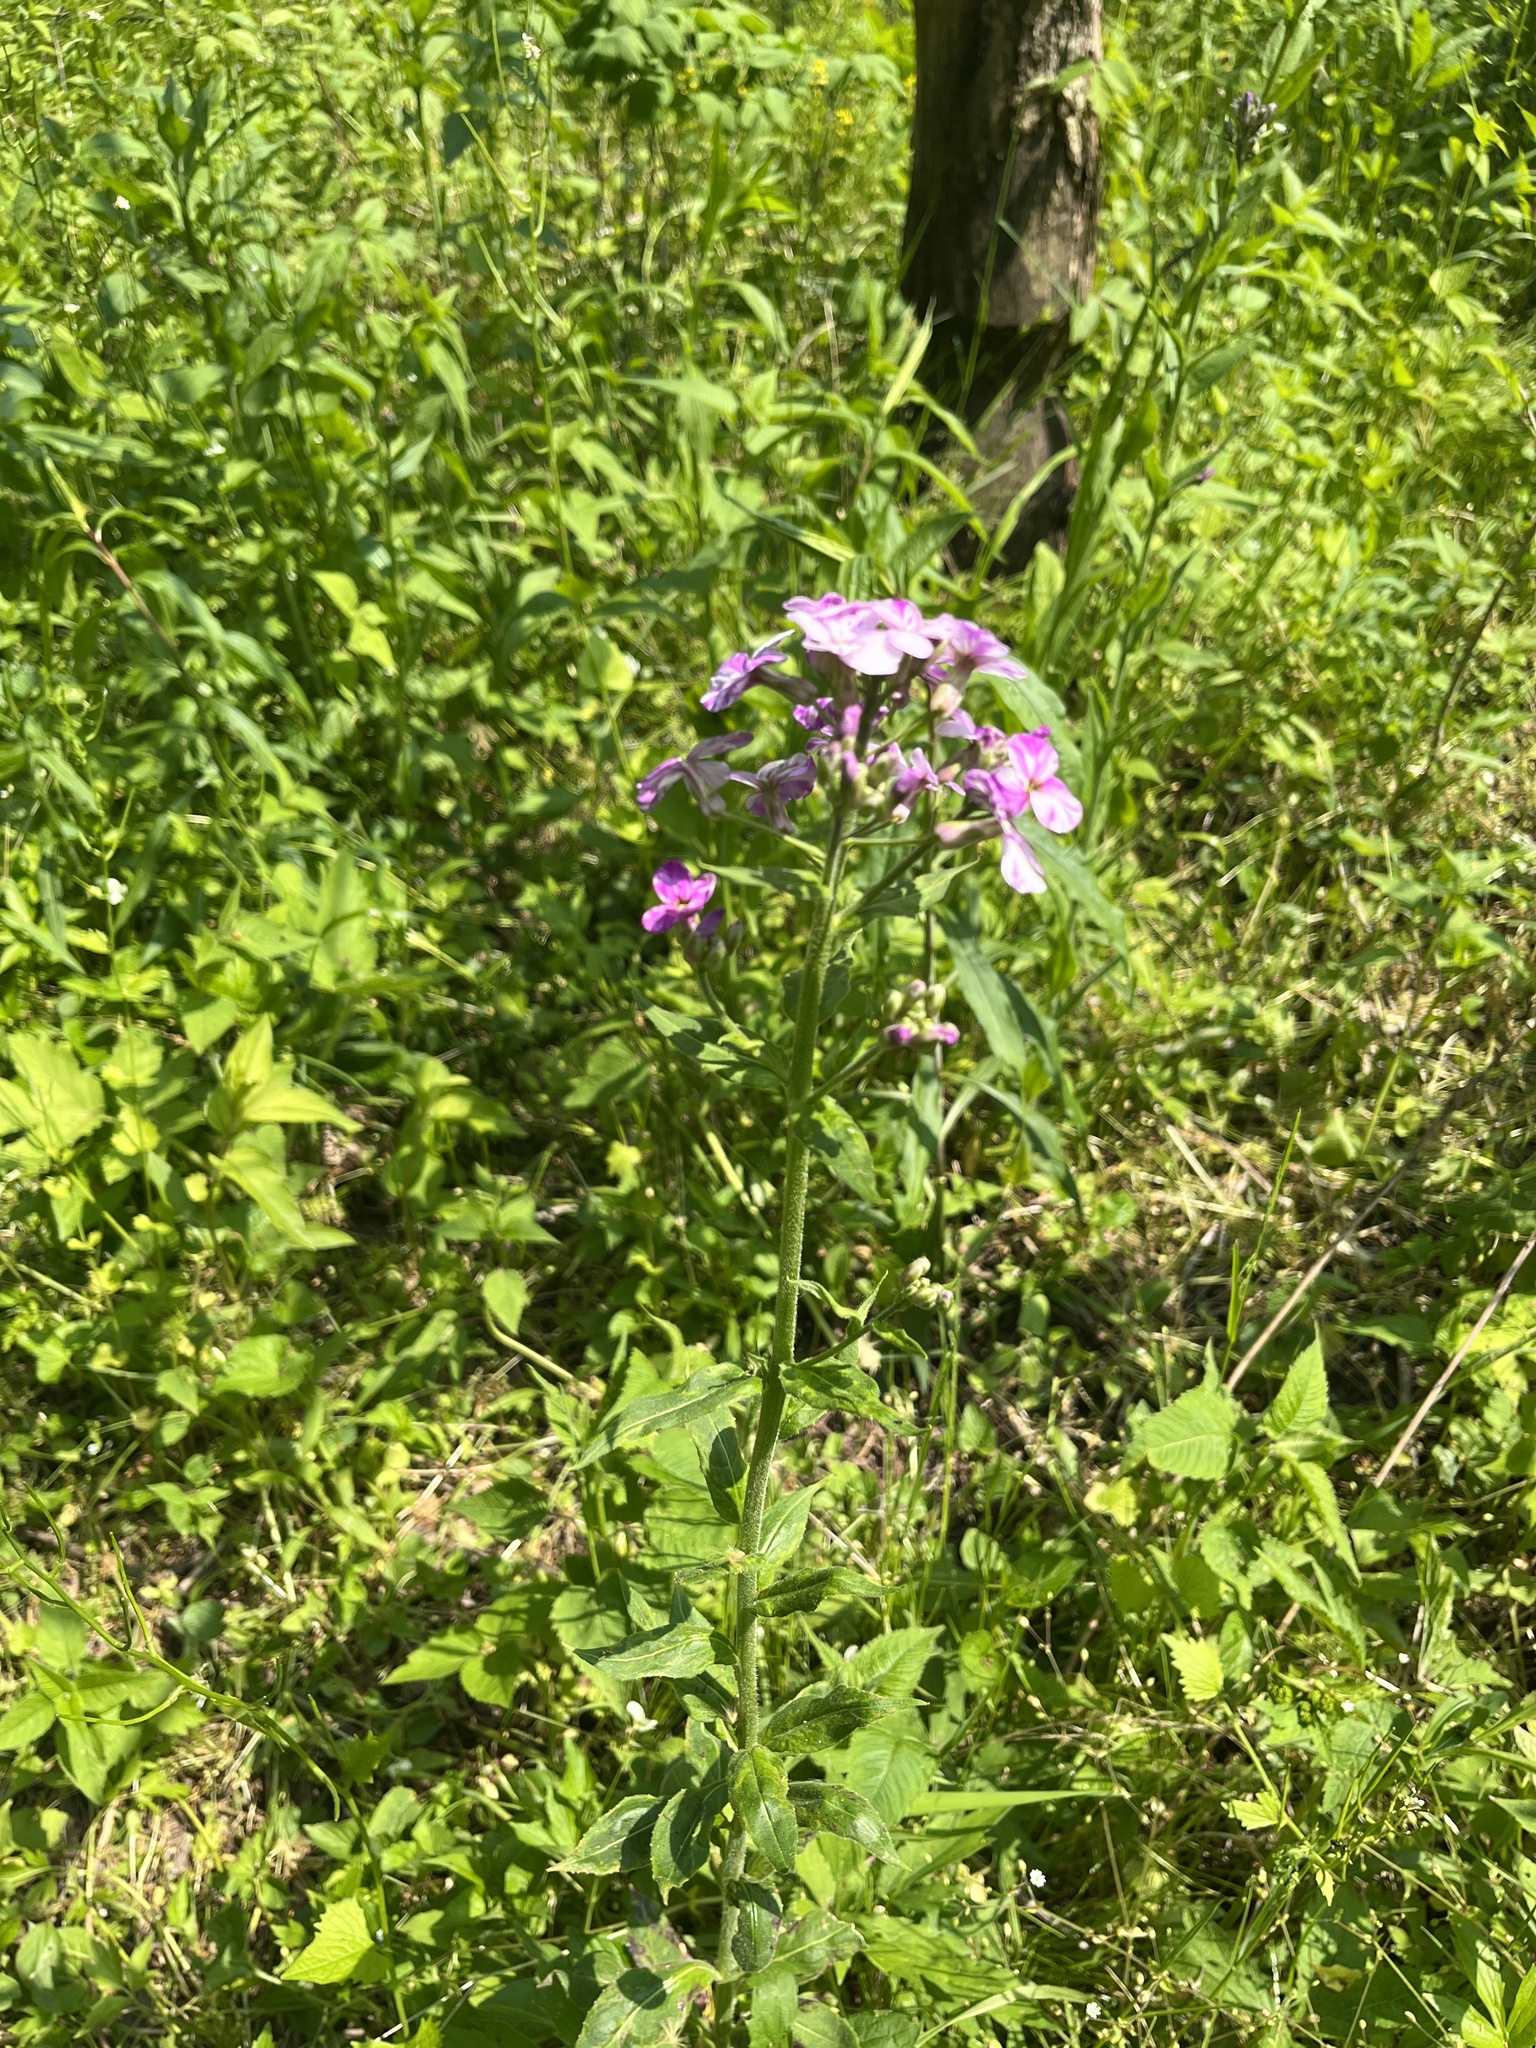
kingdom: Plantae
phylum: Tracheophyta
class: Magnoliopsida
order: Brassicales
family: Brassicaceae
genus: Hesperis
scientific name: Hesperis matronalis
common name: Dame's-violet
